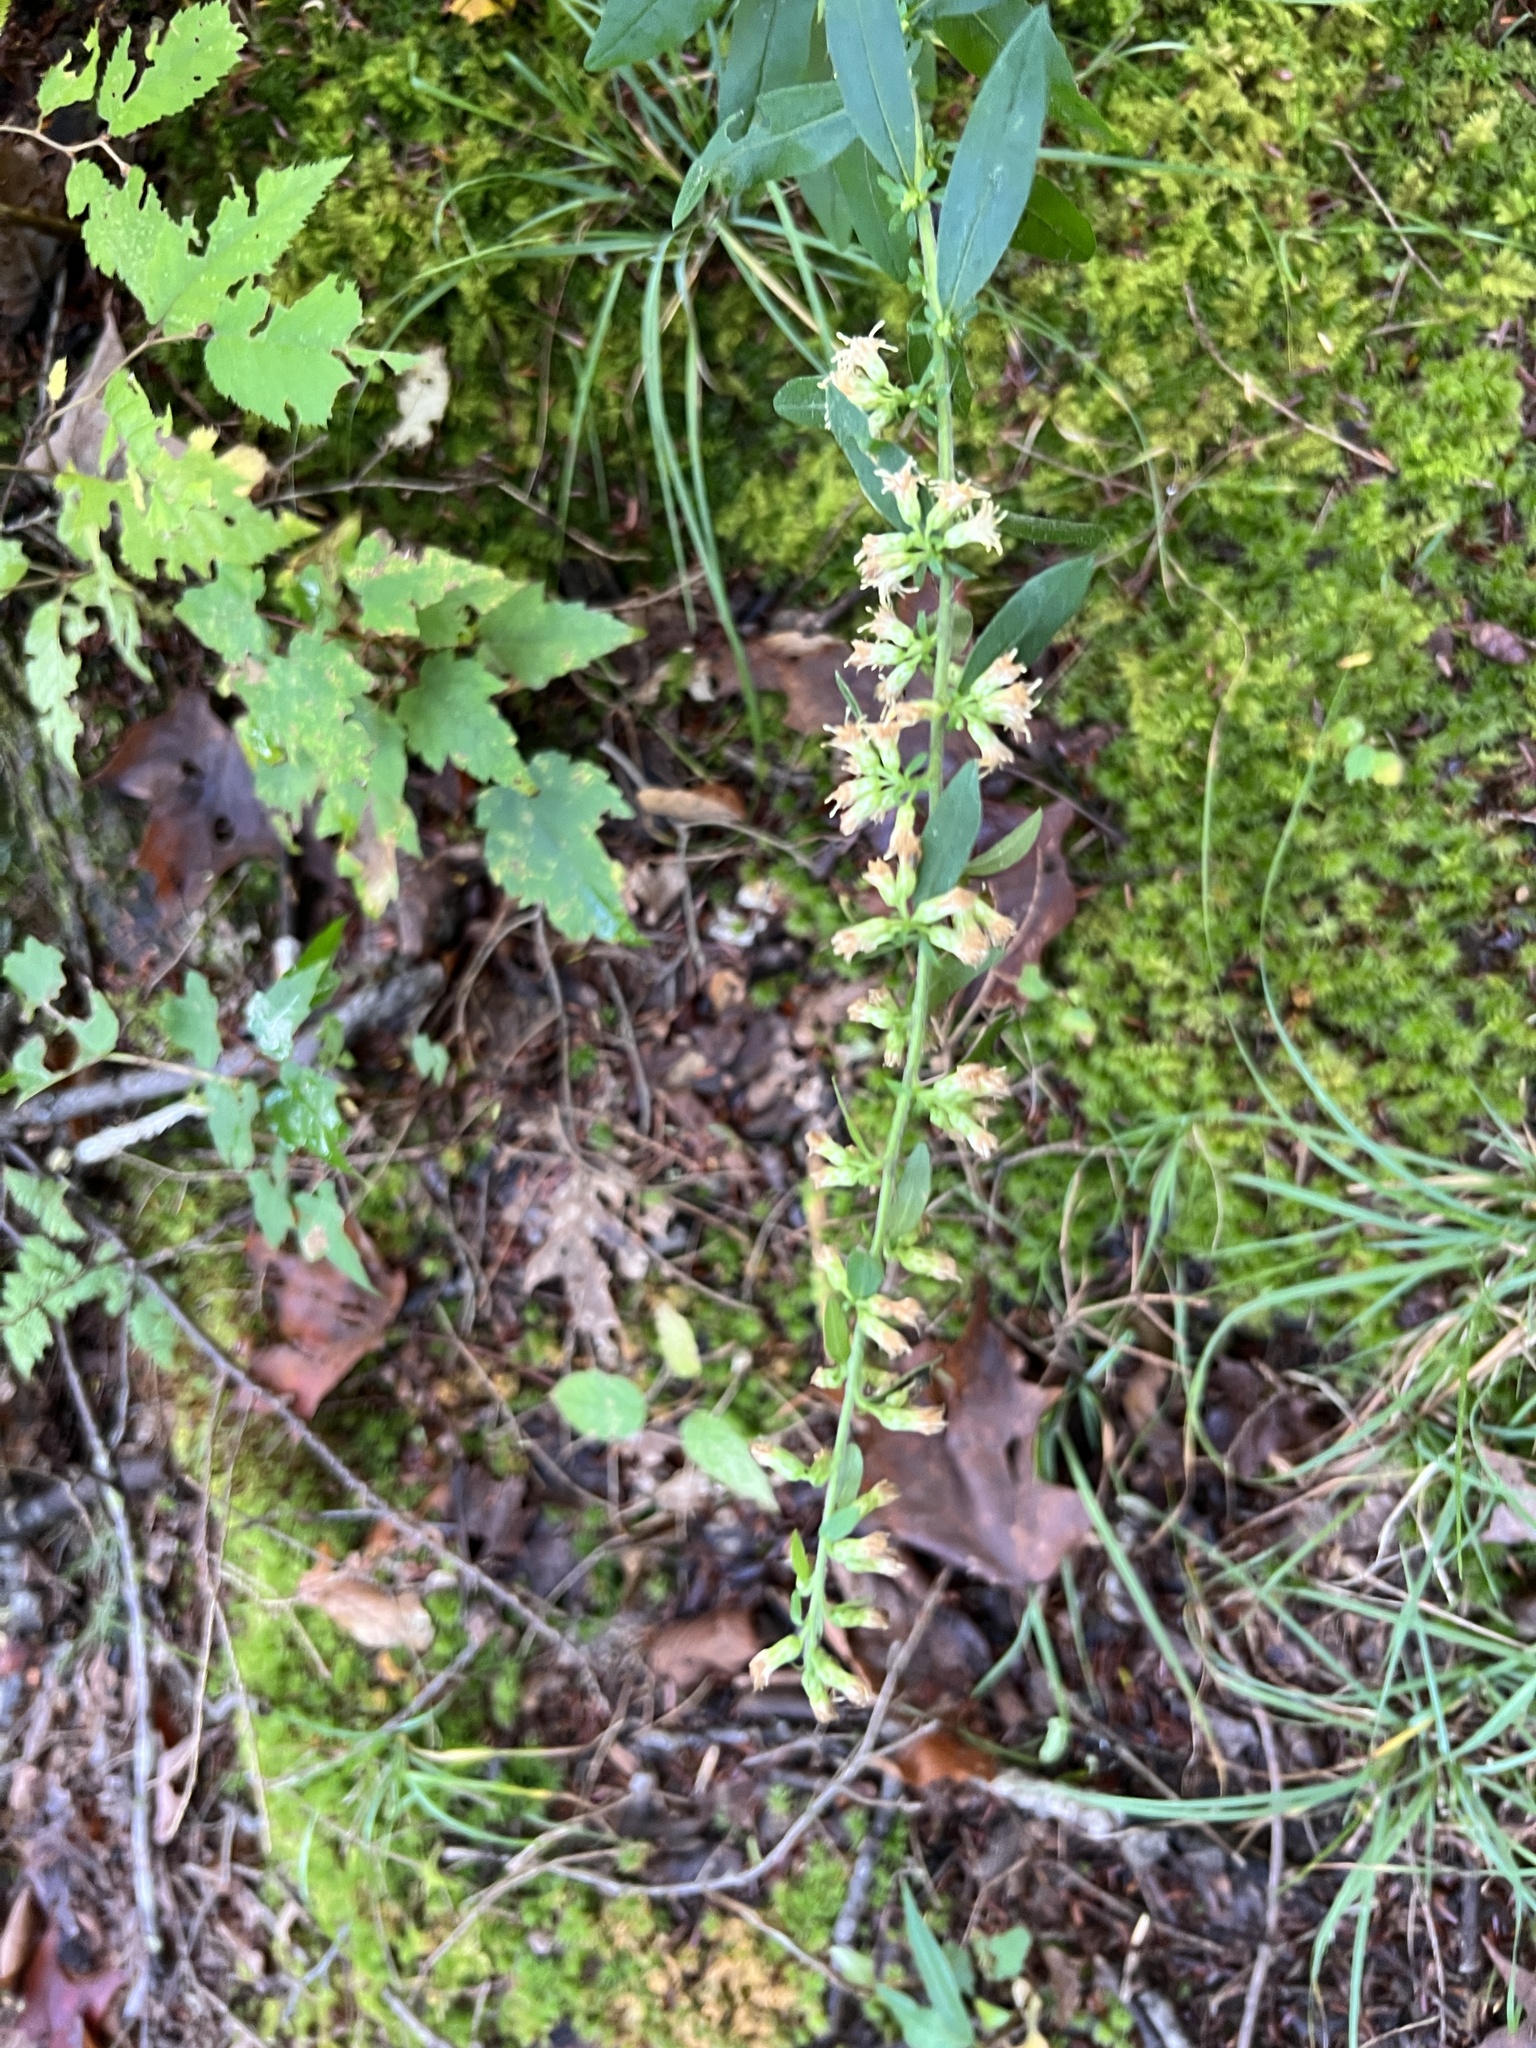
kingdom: Plantae
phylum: Tracheophyta
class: Magnoliopsida
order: Asterales
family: Asteraceae
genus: Solidago
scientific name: Solidago bicolor
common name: Silverrod
